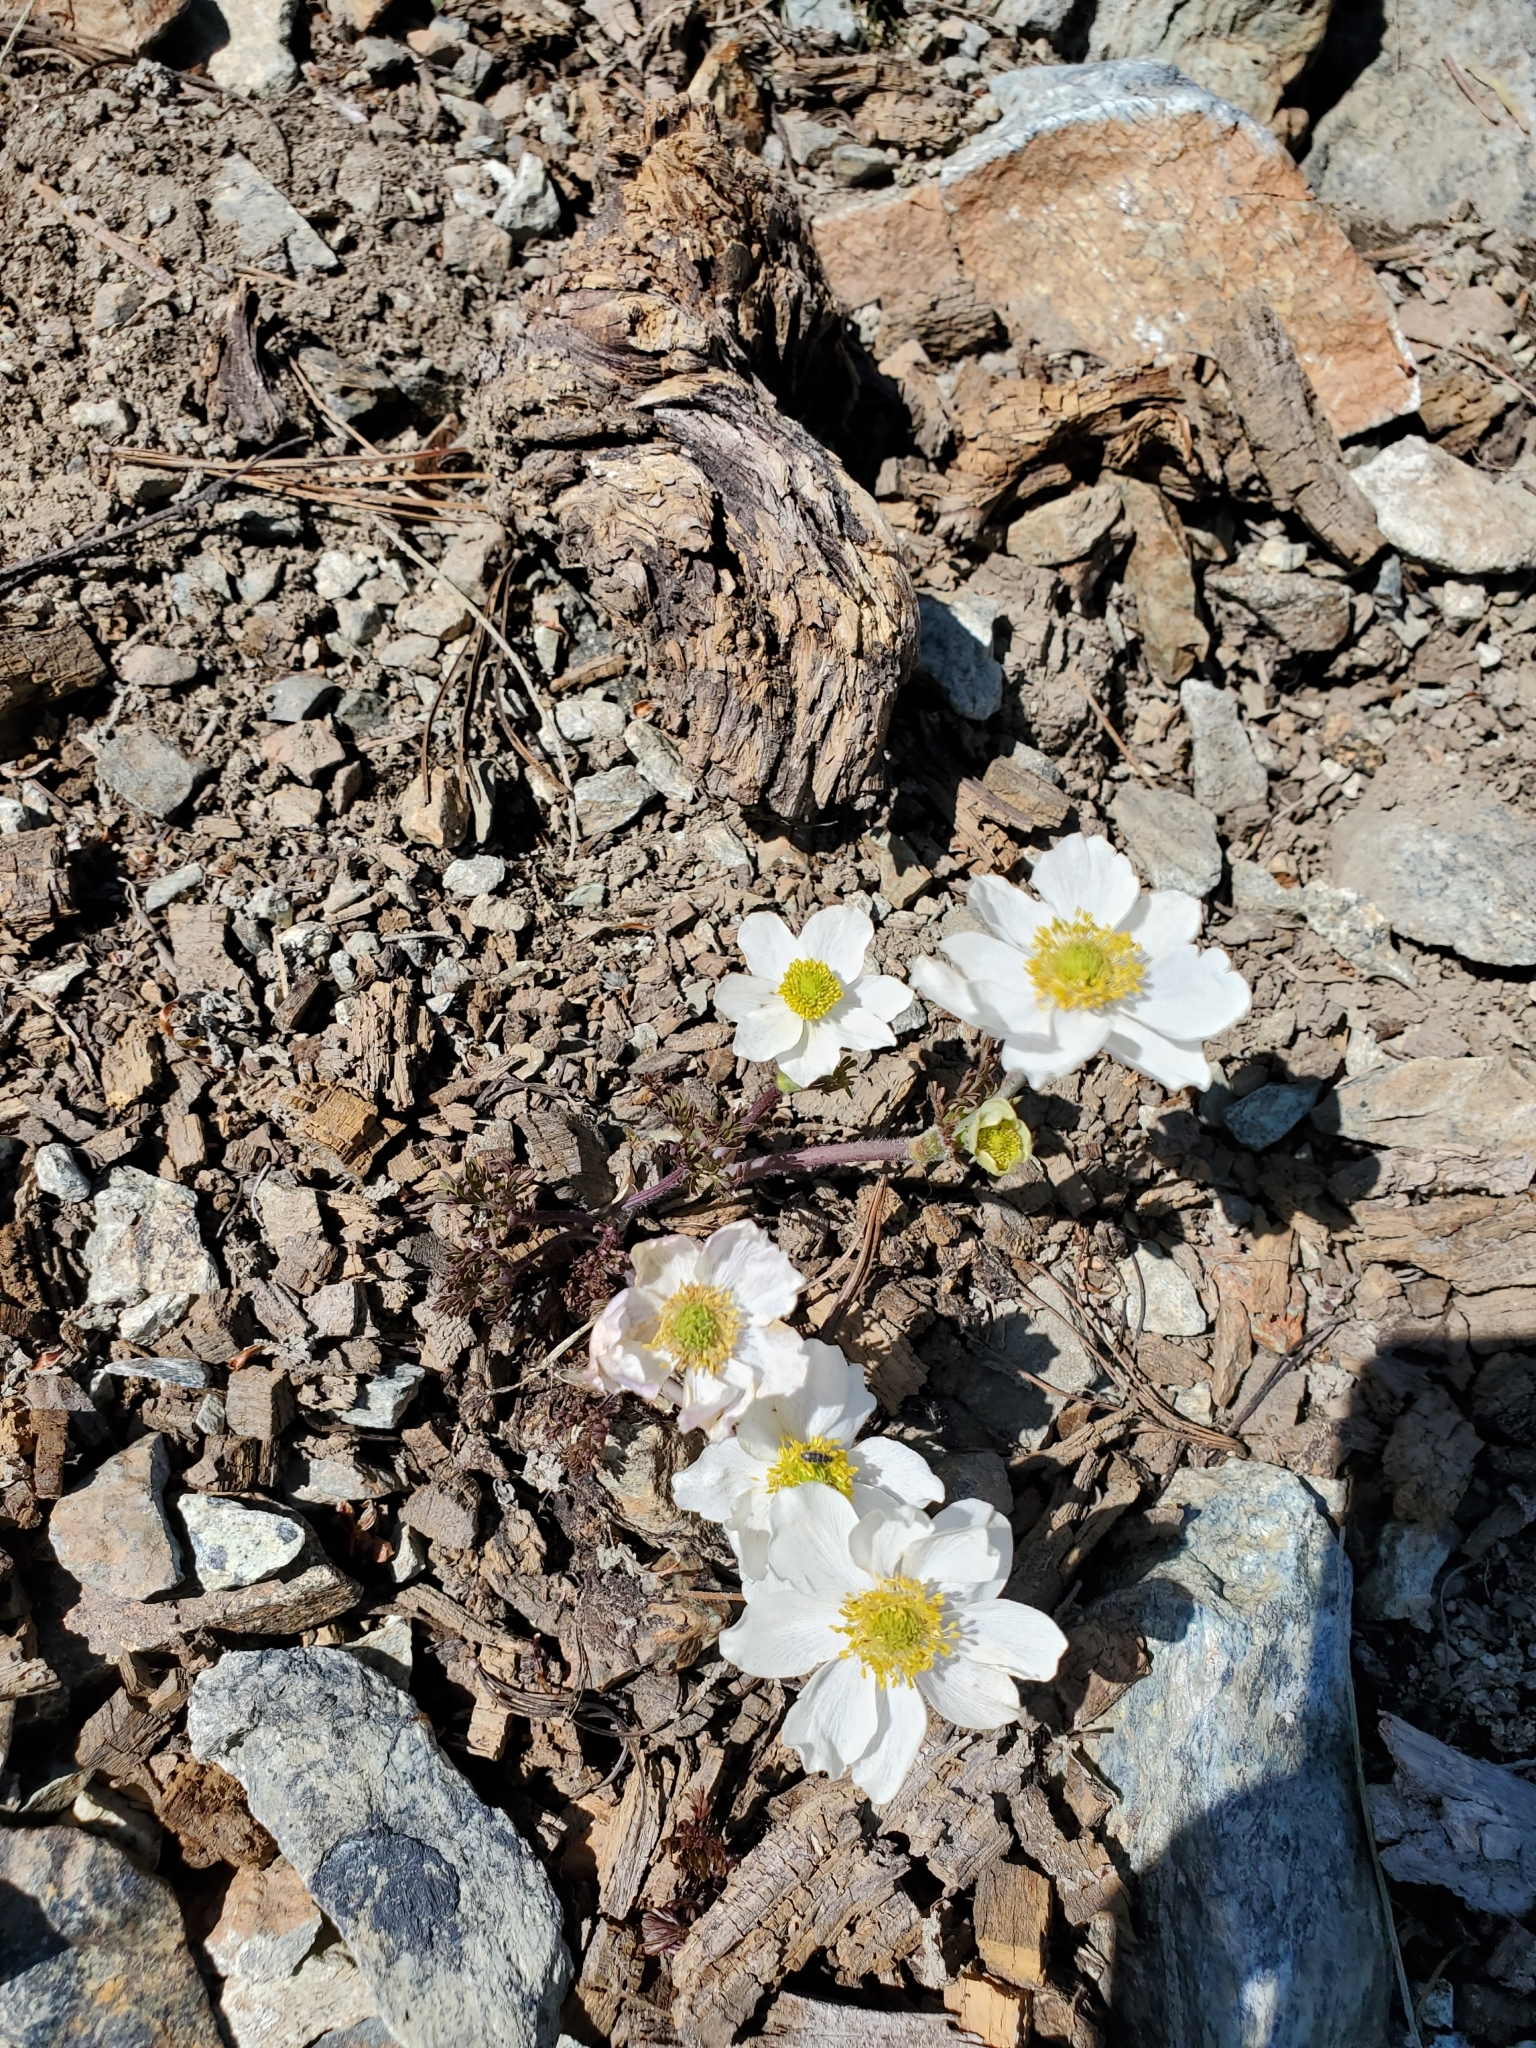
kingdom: Plantae
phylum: Tracheophyta
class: Magnoliopsida
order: Ranunculales
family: Ranunculaceae
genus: Anemone
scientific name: Anemone drummondii
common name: Drummond's anemone
